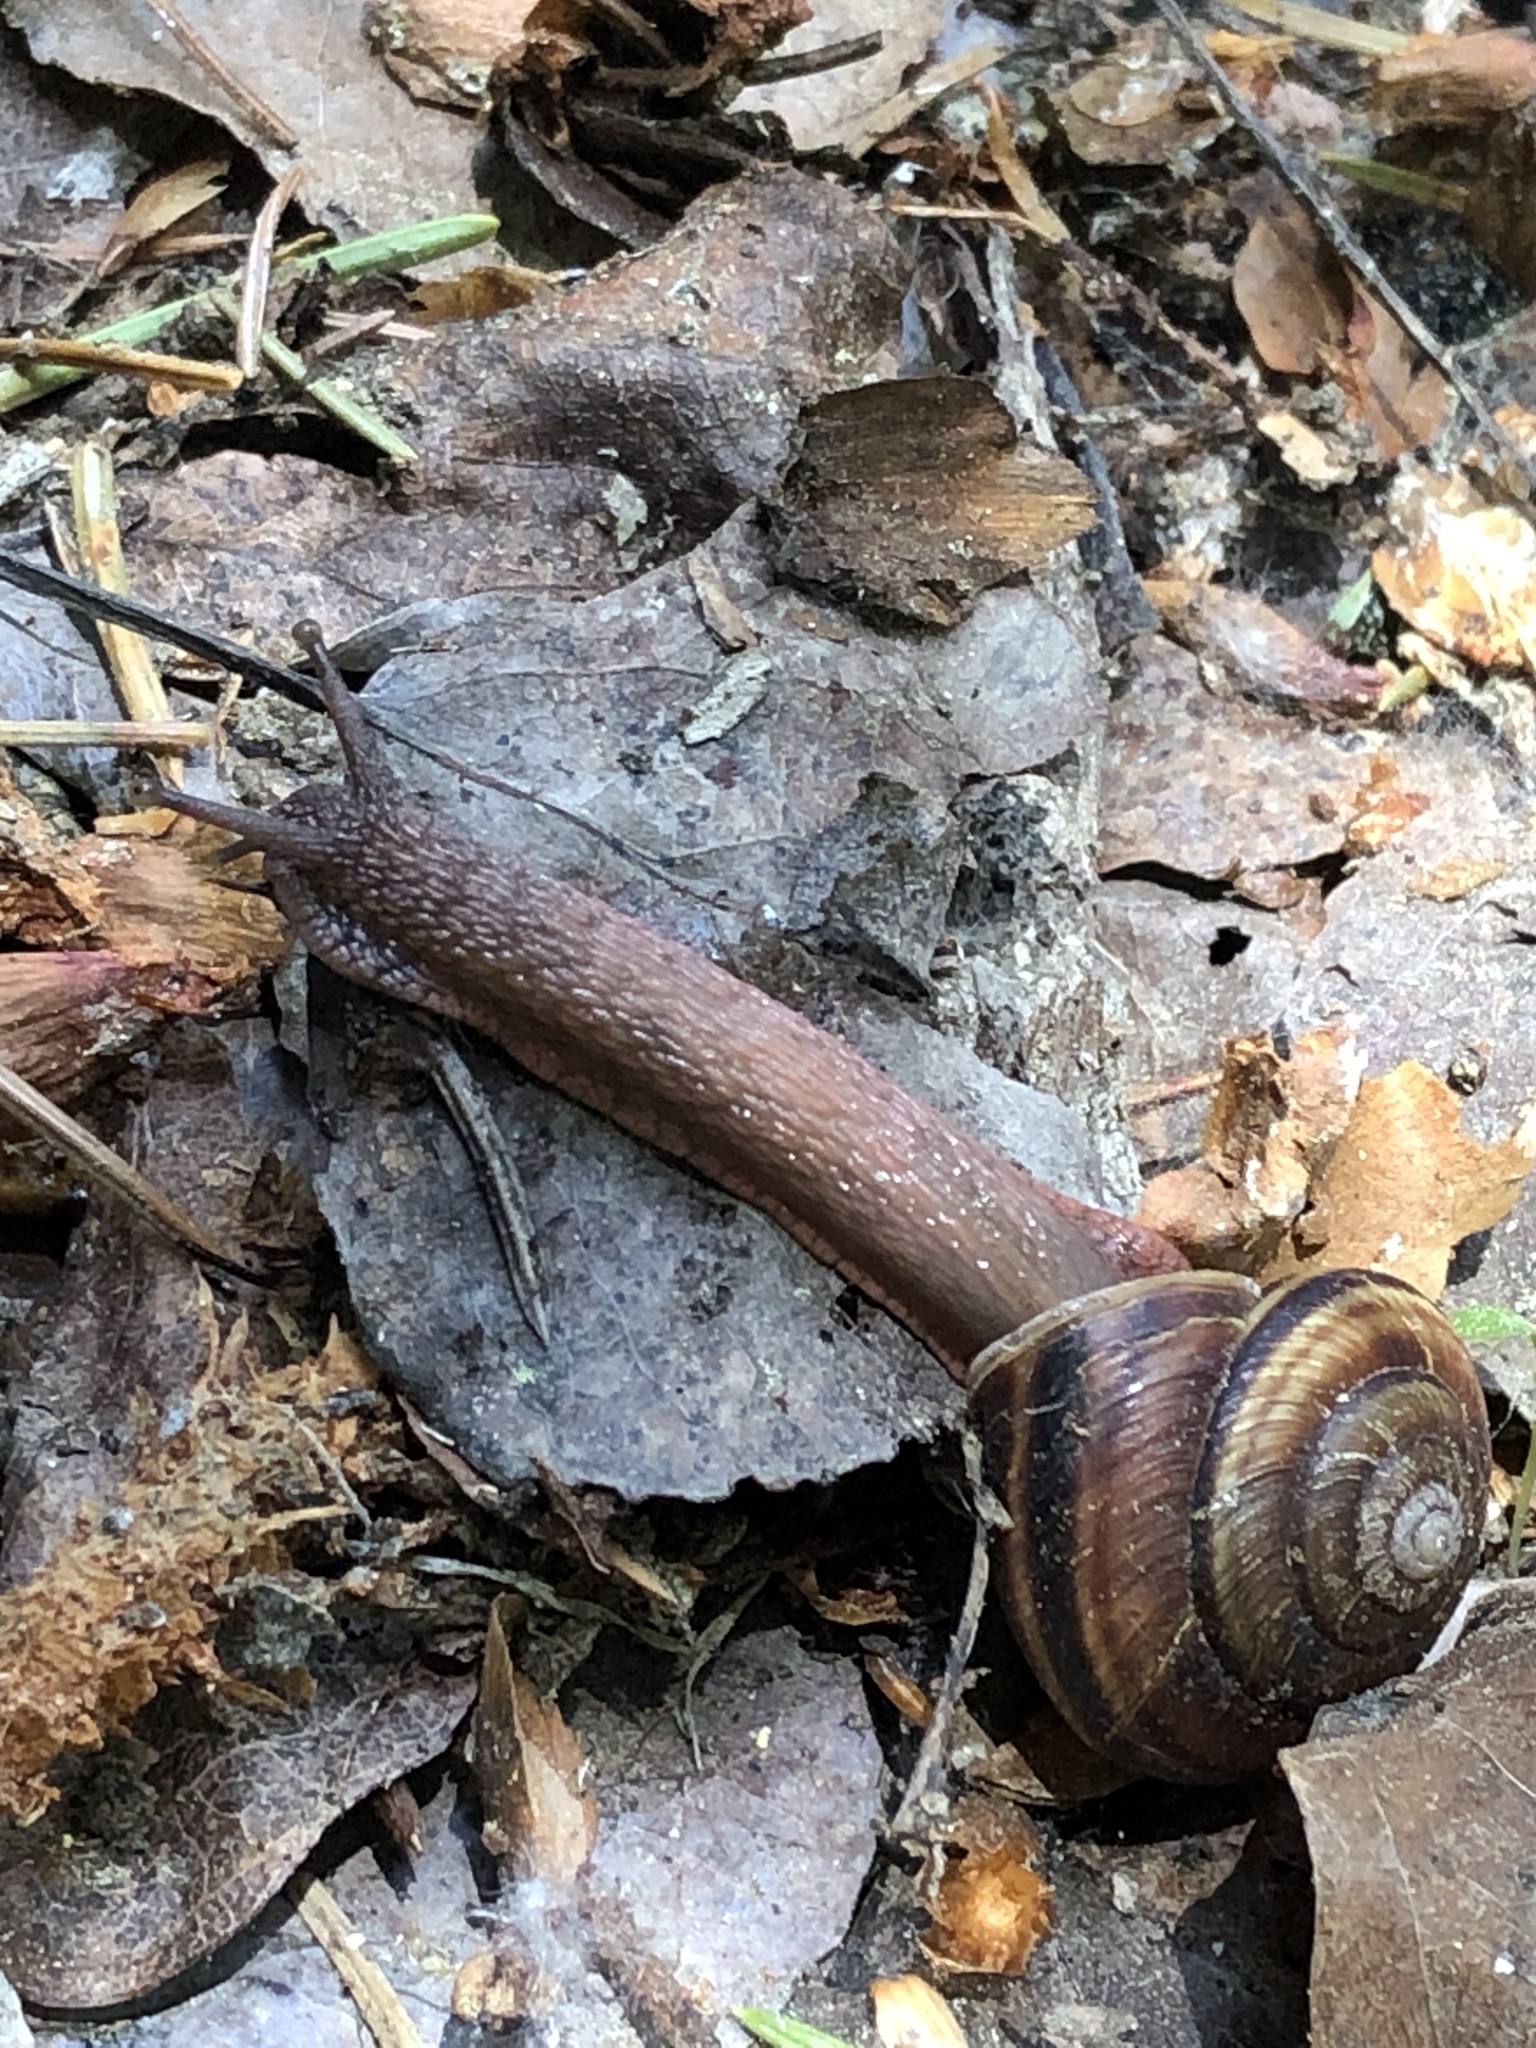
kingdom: Animalia
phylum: Mollusca
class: Gastropoda
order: Stylommatophora
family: Xanthonychidae
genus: Monadenia
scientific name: Monadenia fidelis
